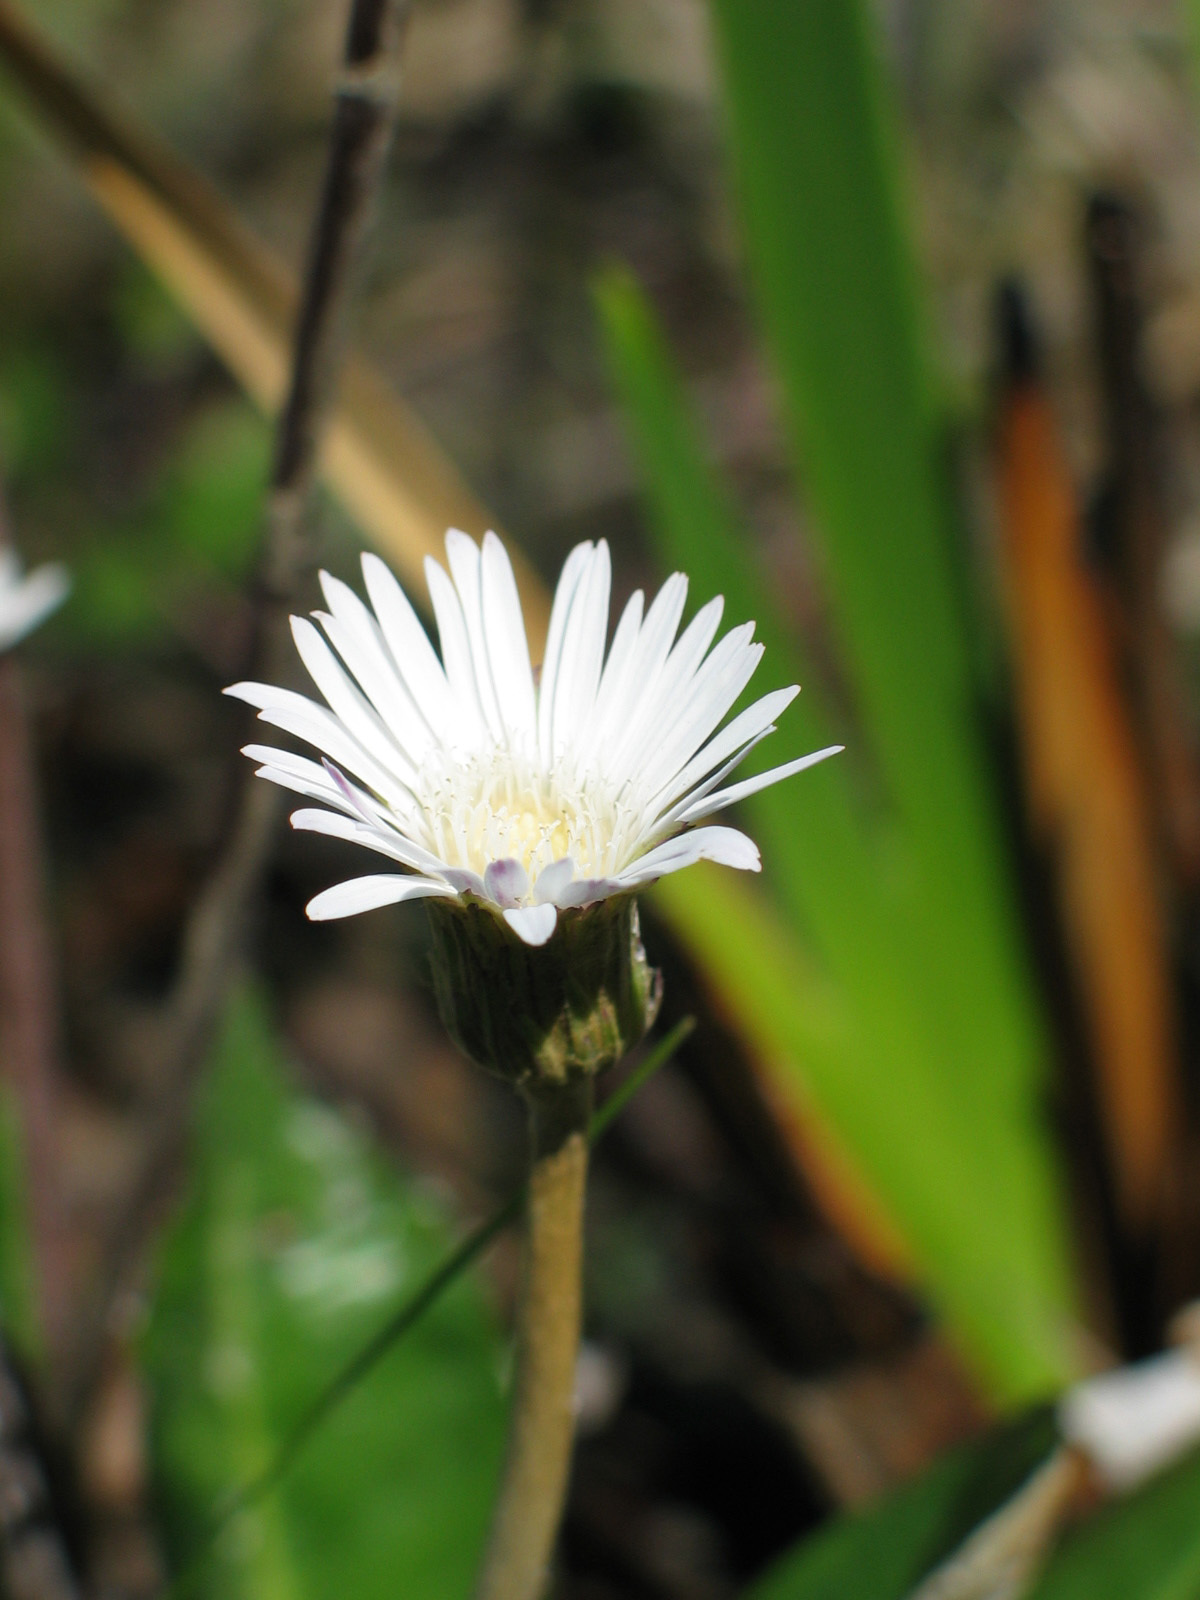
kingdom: Plantae
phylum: Tracheophyta
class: Magnoliopsida
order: Asterales
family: Asteraceae
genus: Chaptalia
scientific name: Chaptalia tomentosa
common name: Woolly sunbonnet
